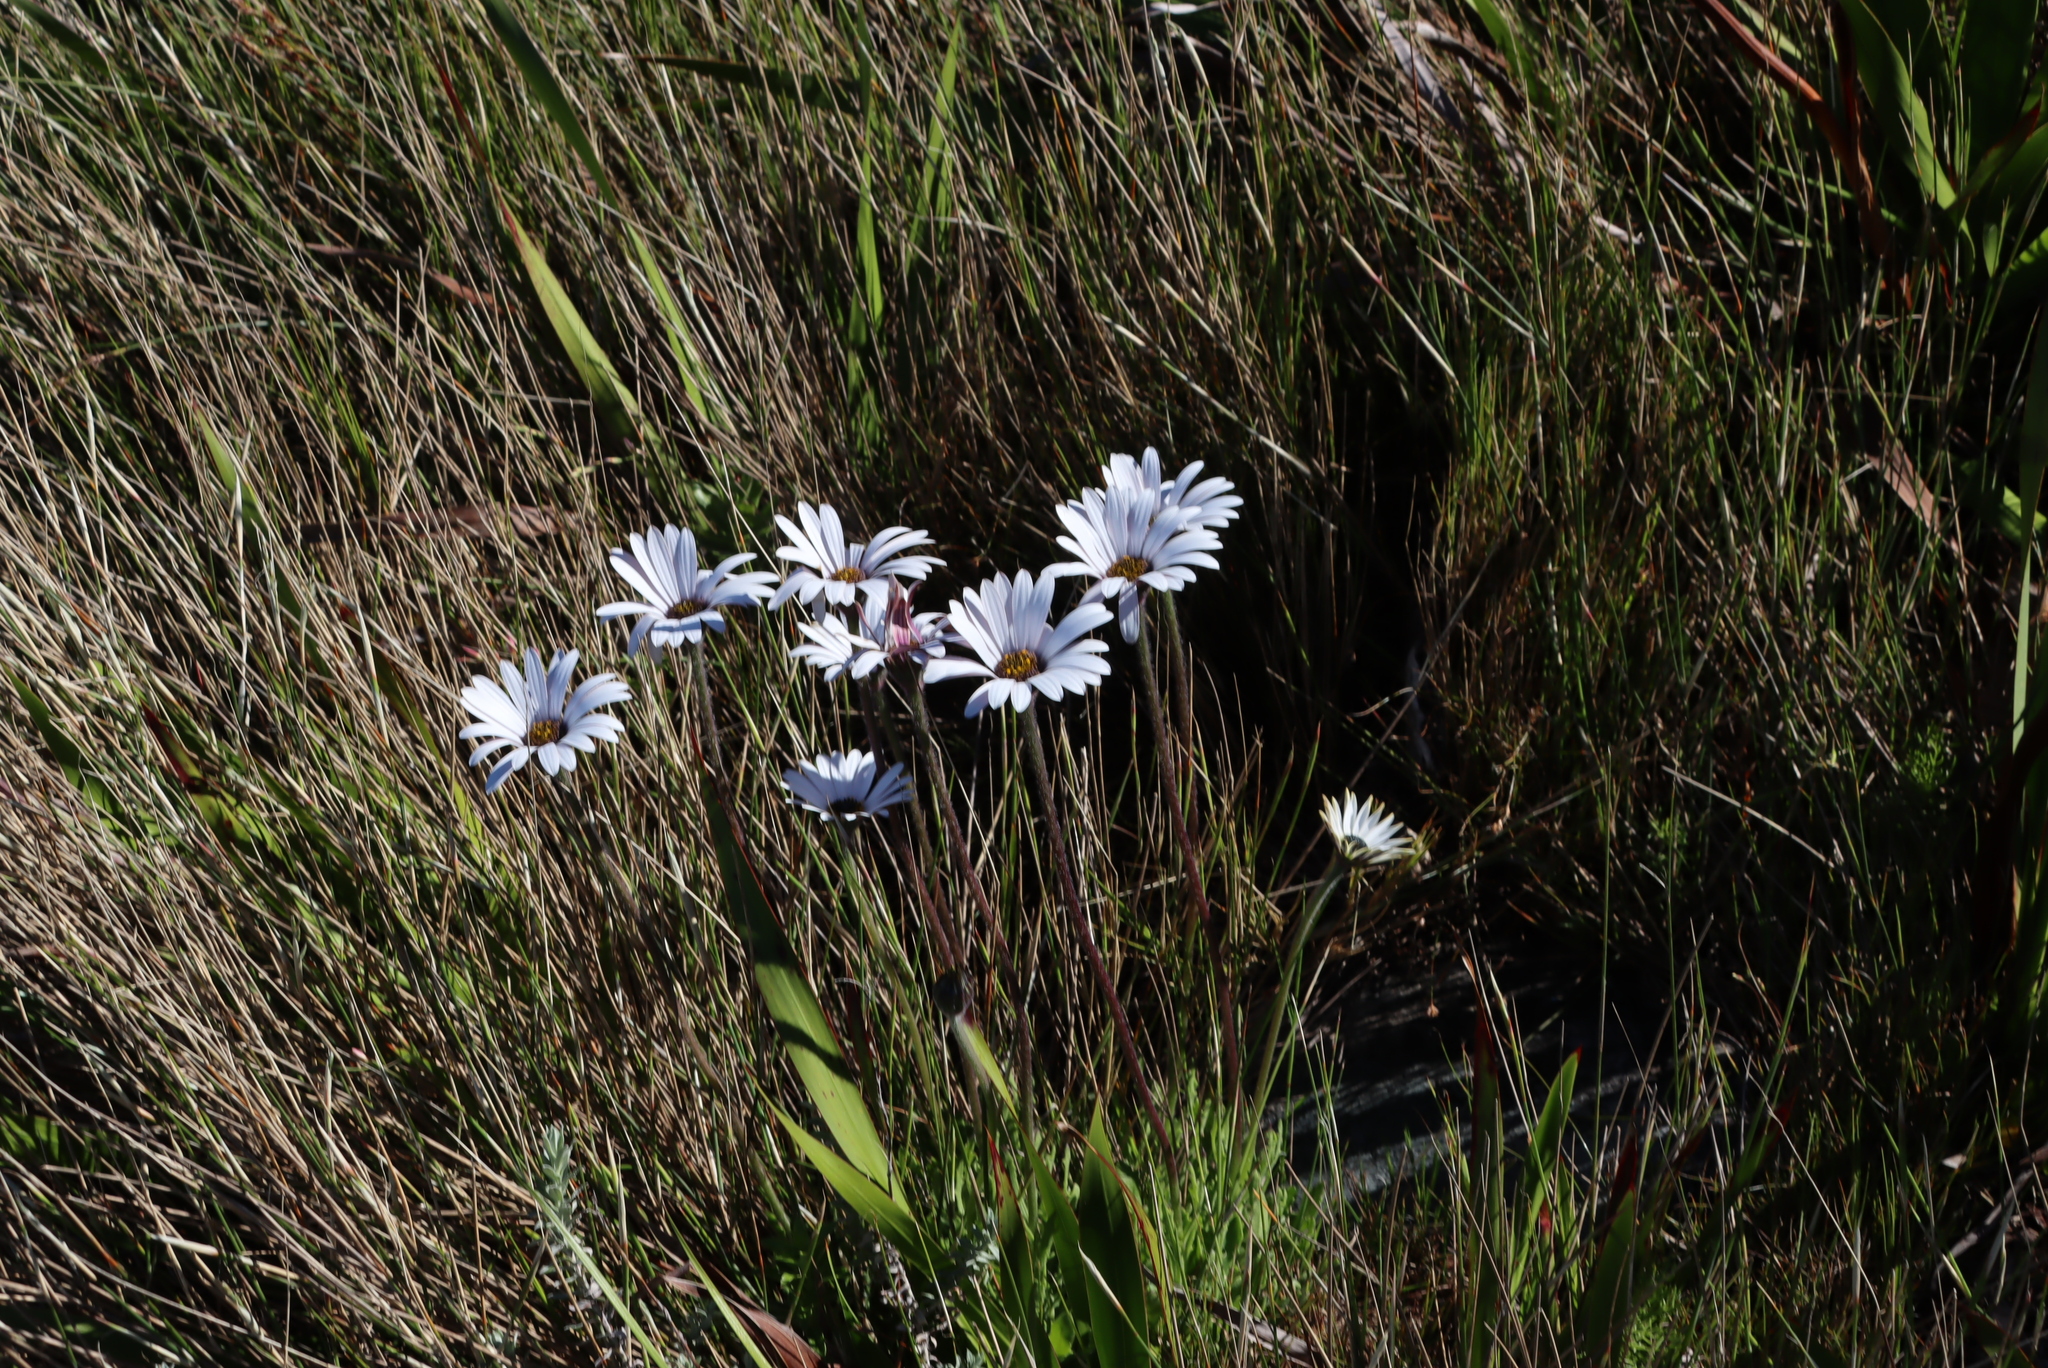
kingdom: Plantae
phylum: Tracheophyta
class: Magnoliopsida
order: Asterales
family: Asteraceae
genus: Dimorphotheca
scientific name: Dimorphotheca nudicaulis
